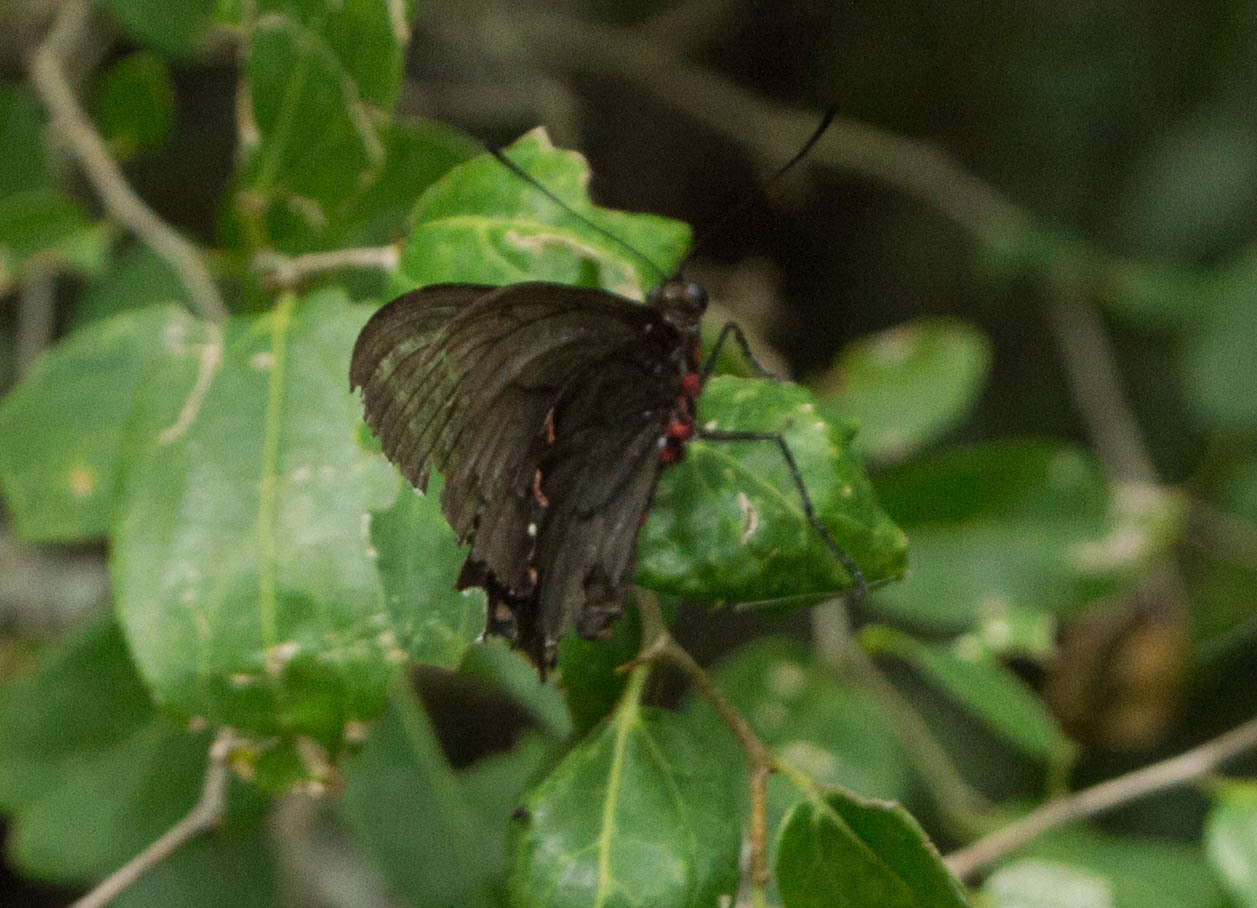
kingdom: Animalia
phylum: Arthropoda
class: Insecta
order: Lepidoptera
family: Papilionidae
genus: Parides
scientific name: Parides bunichus
